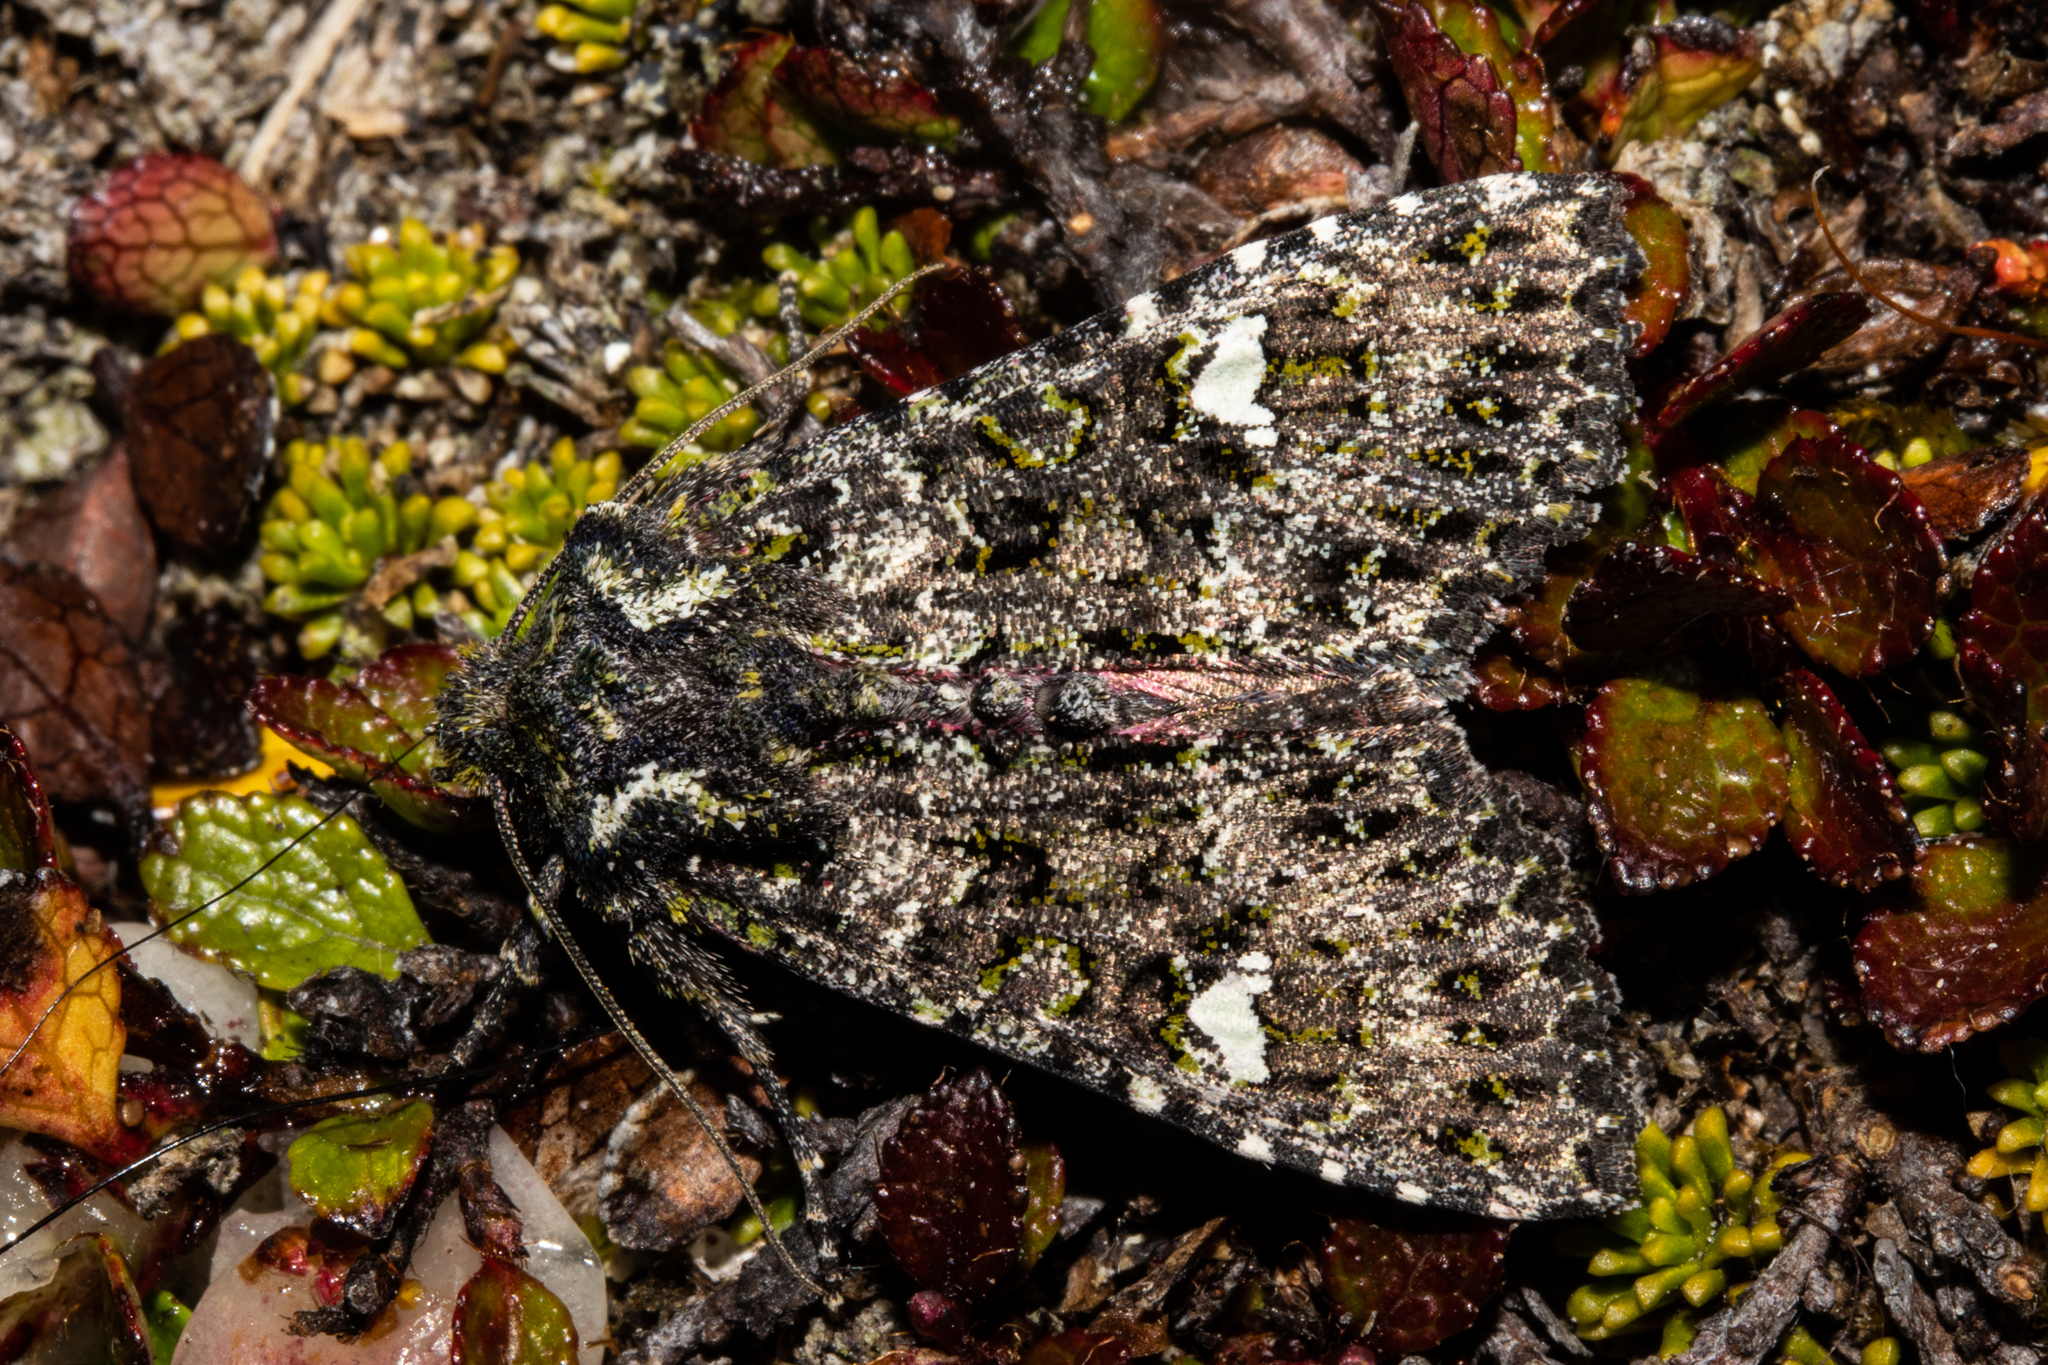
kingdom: Animalia
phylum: Arthropoda
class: Insecta
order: Lepidoptera
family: Noctuidae
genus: Meterana
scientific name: Meterana meyricci
